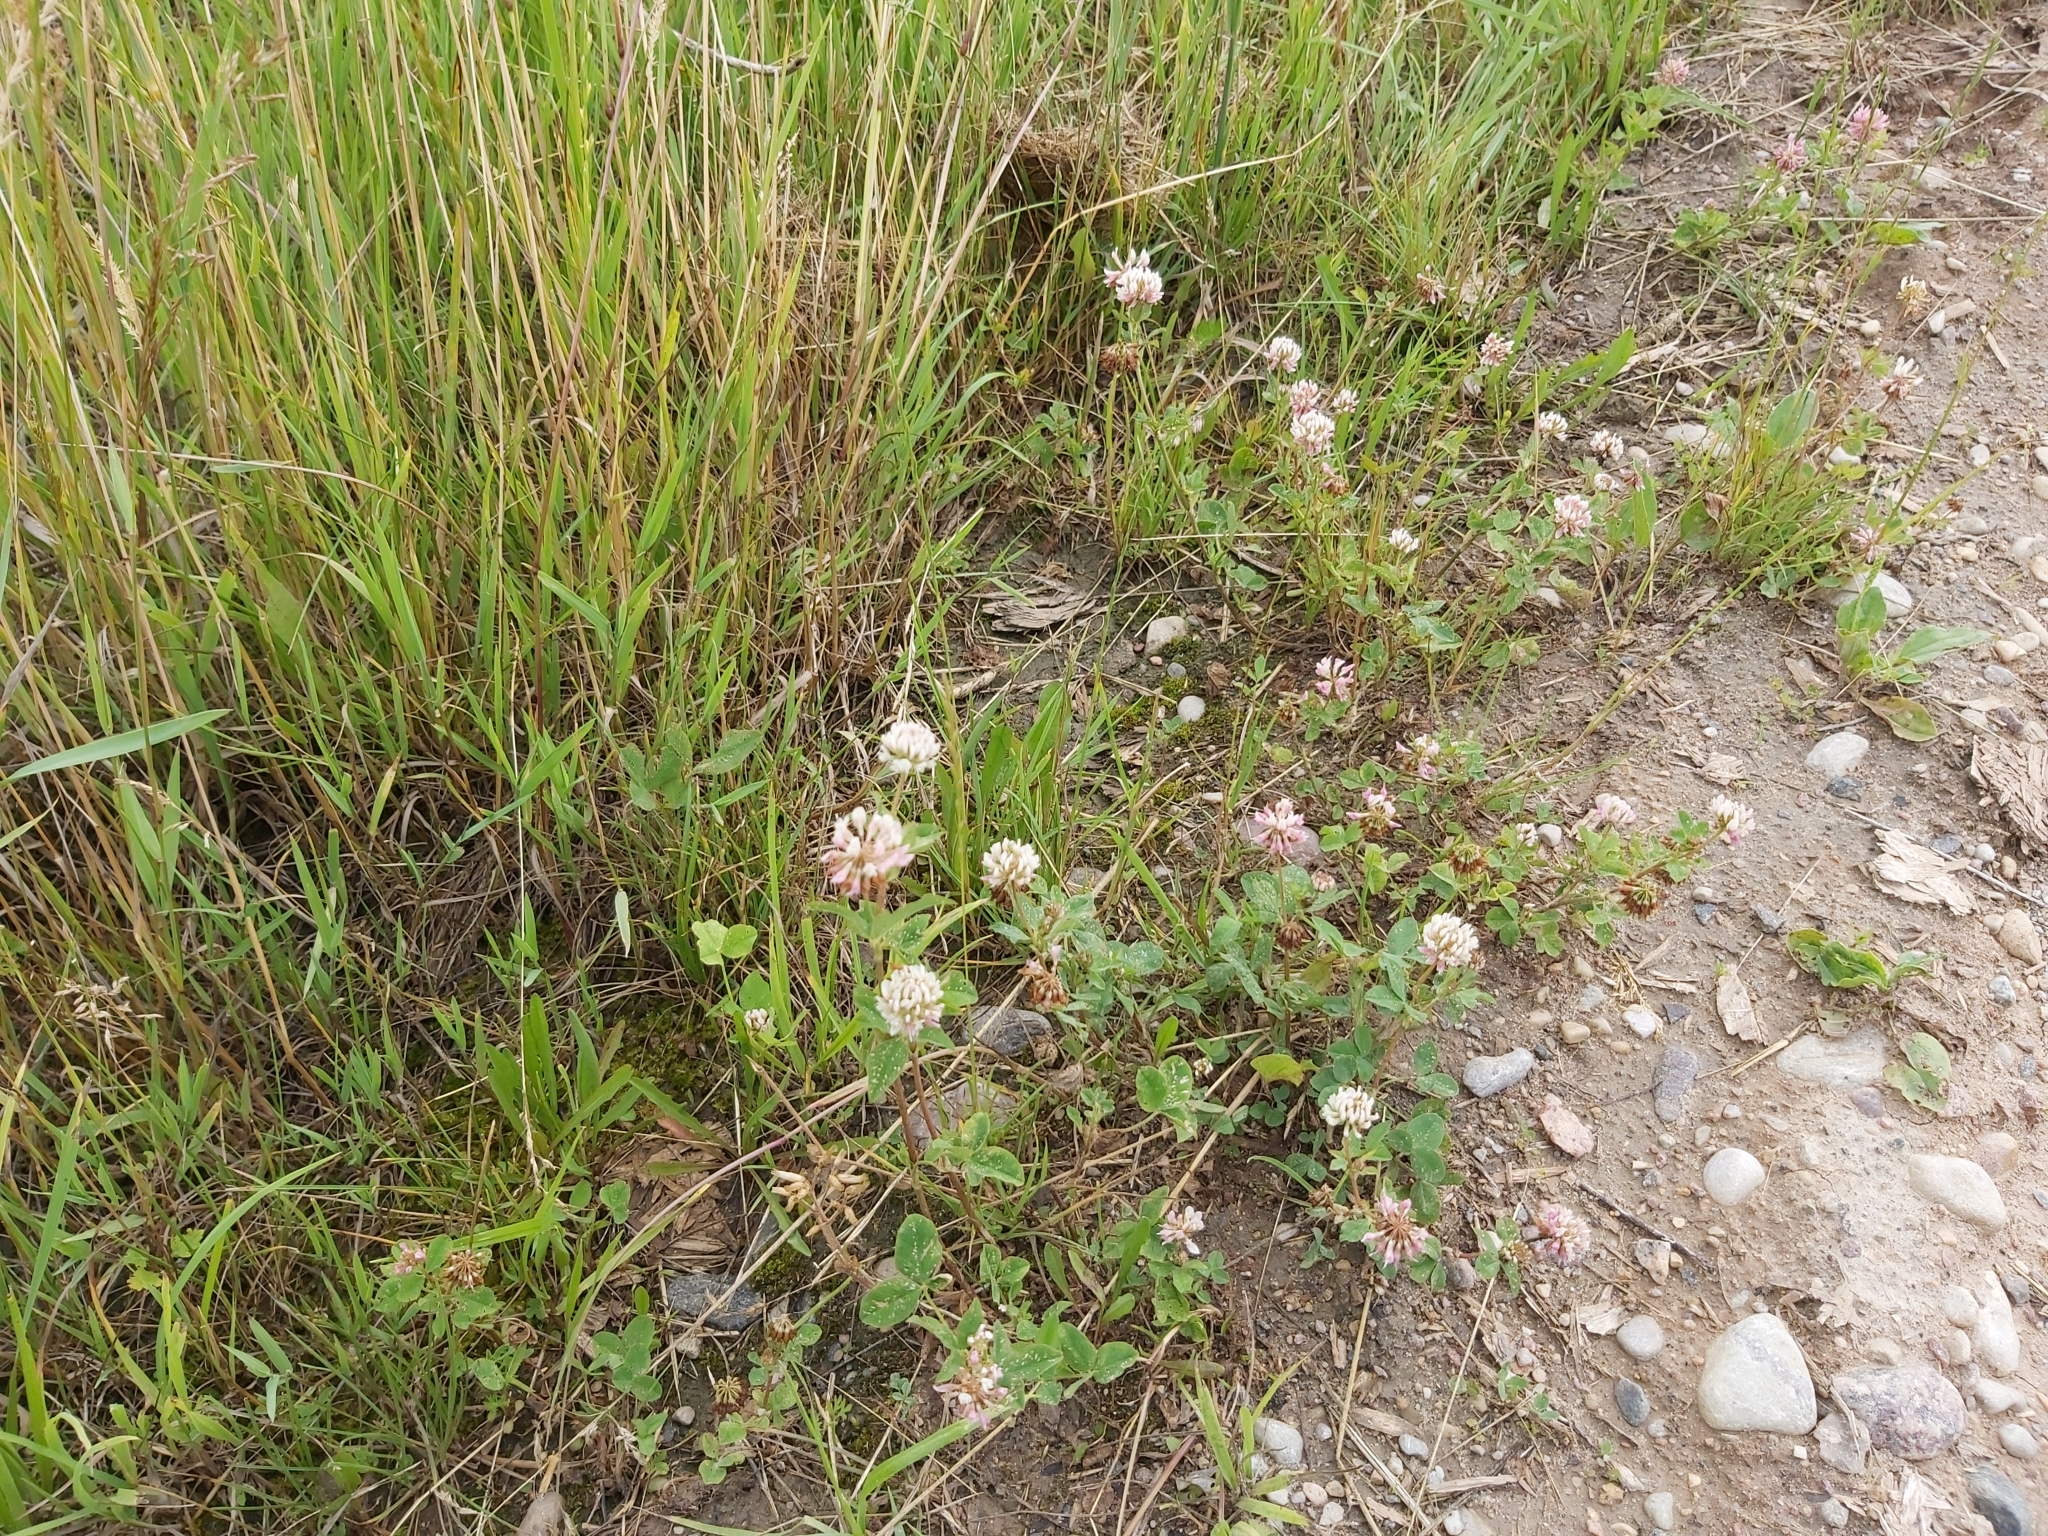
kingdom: Plantae
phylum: Tracheophyta
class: Magnoliopsida
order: Fabales
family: Fabaceae
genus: Trifolium
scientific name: Trifolium hybridum
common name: Alsike clover
